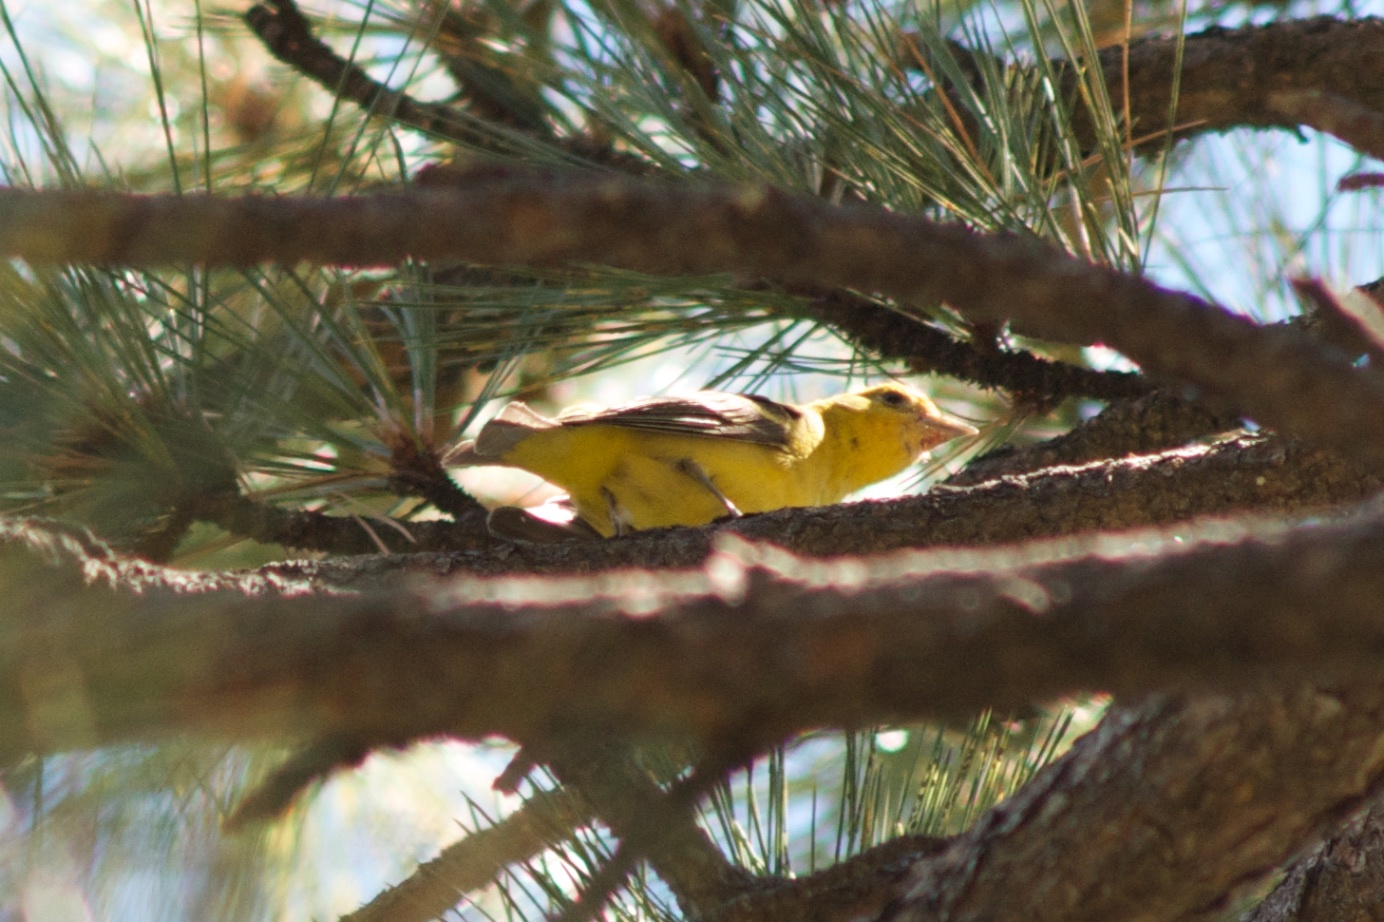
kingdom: Animalia
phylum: Chordata
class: Aves
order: Passeriformes
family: Cardinalidae
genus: Piranga
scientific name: Piranga ludoviciana
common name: Western tanager
